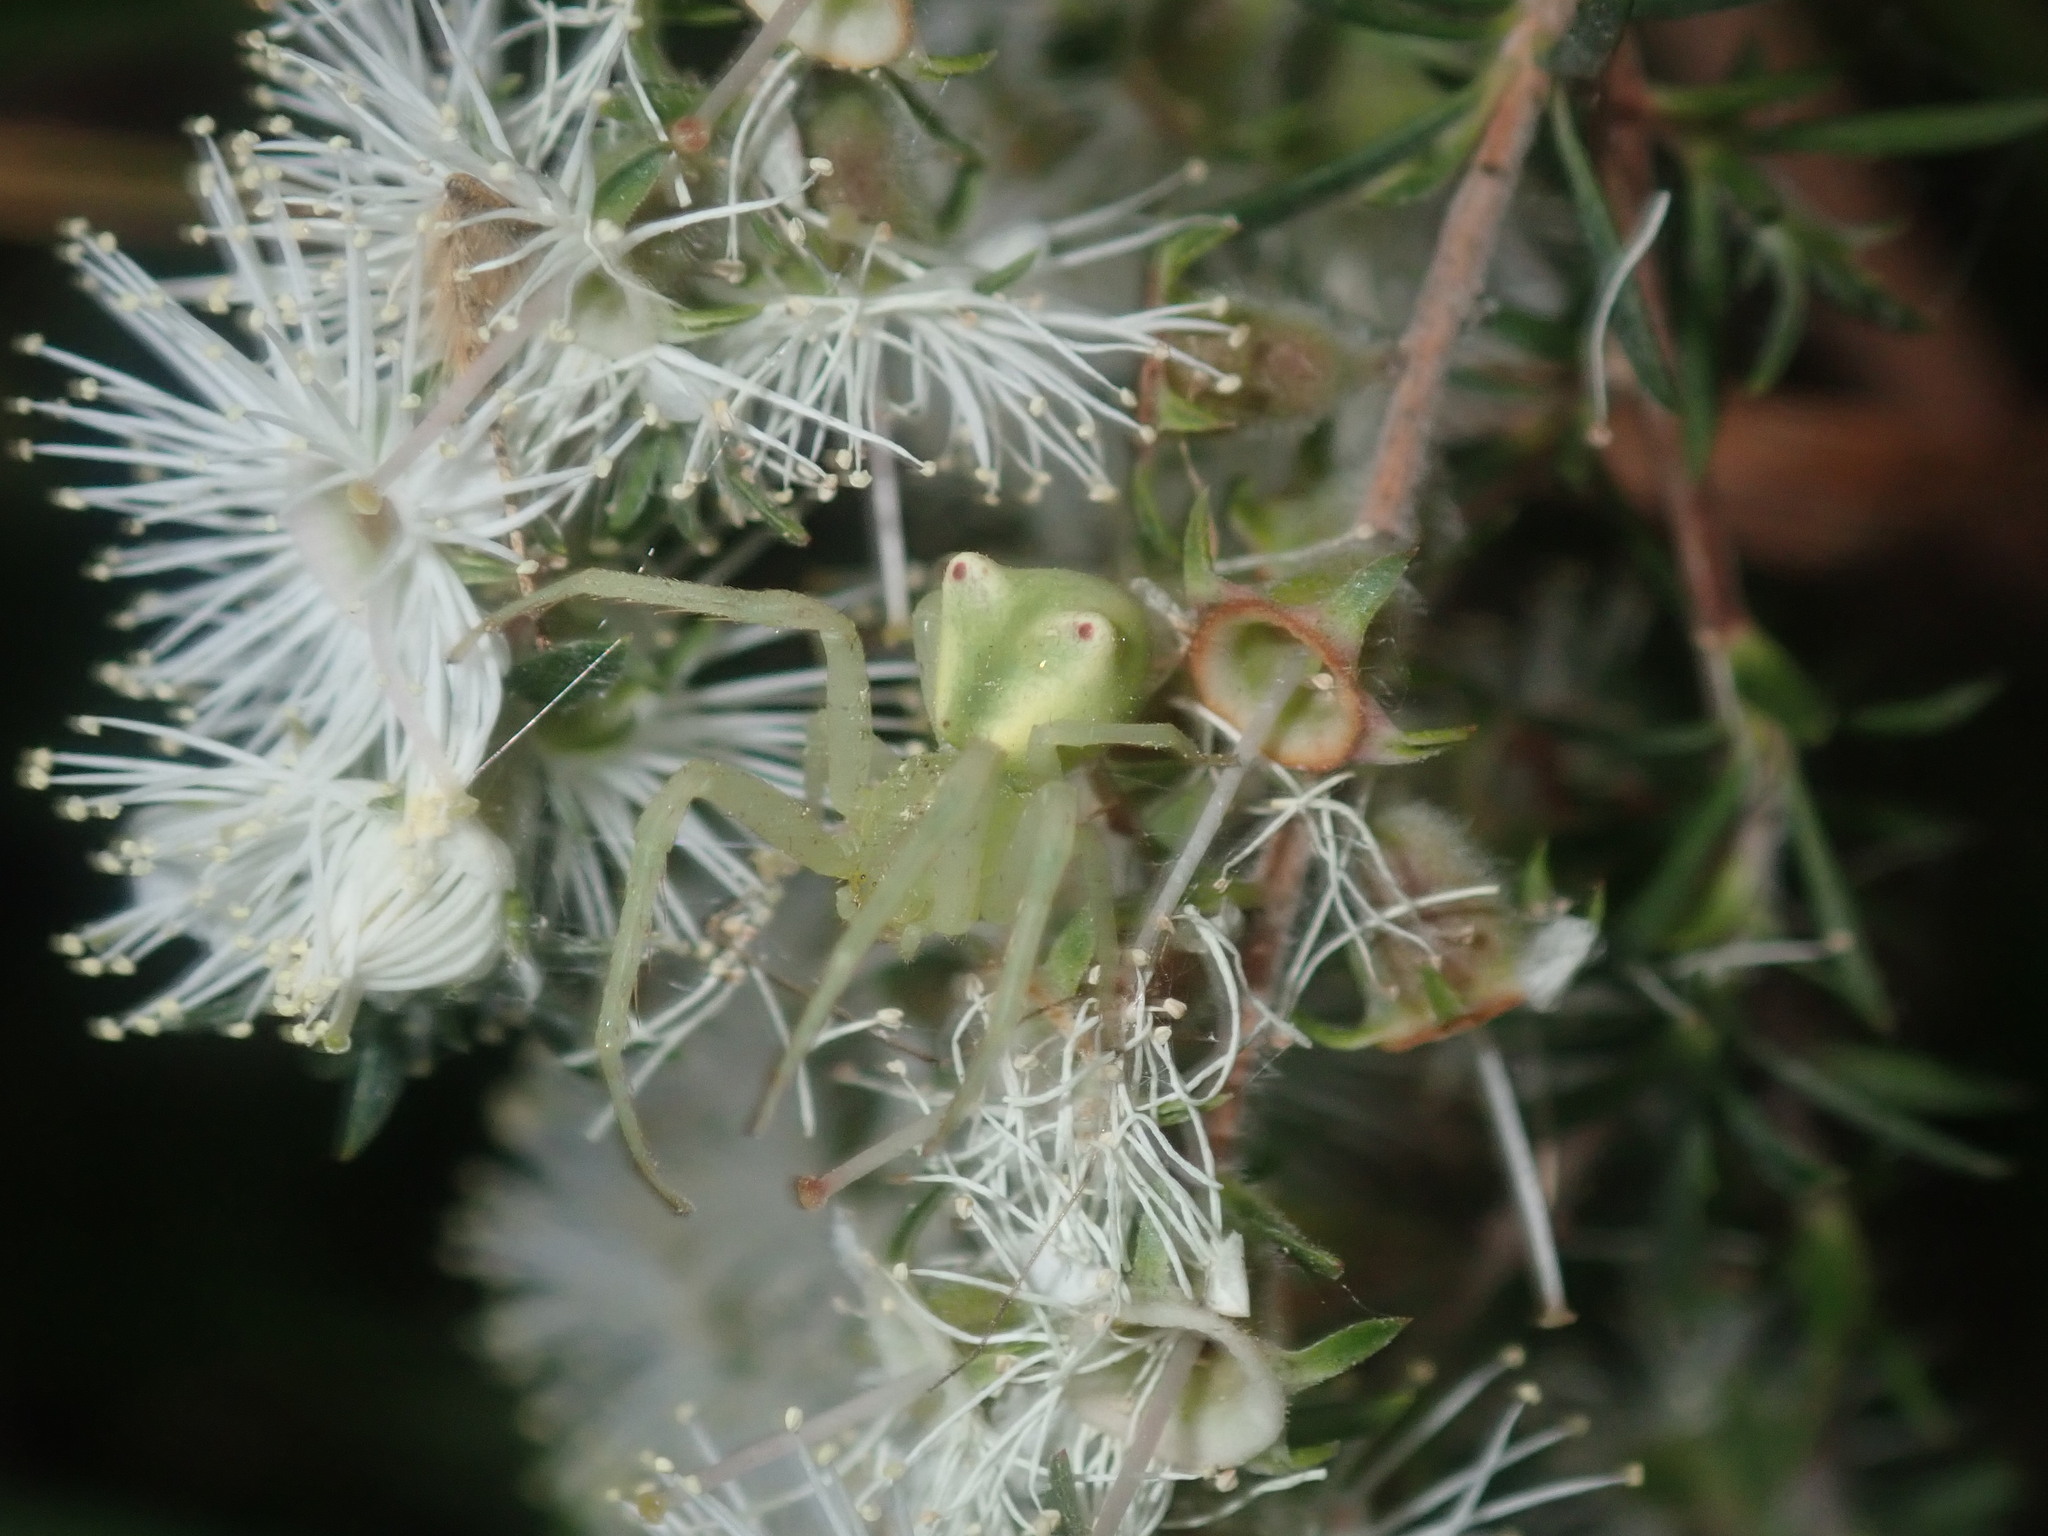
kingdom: Animalia
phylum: Arthropoda
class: Arachnida
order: Araneae
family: Thomisidae
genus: Sidymella
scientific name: Sidymella rubrosignata
